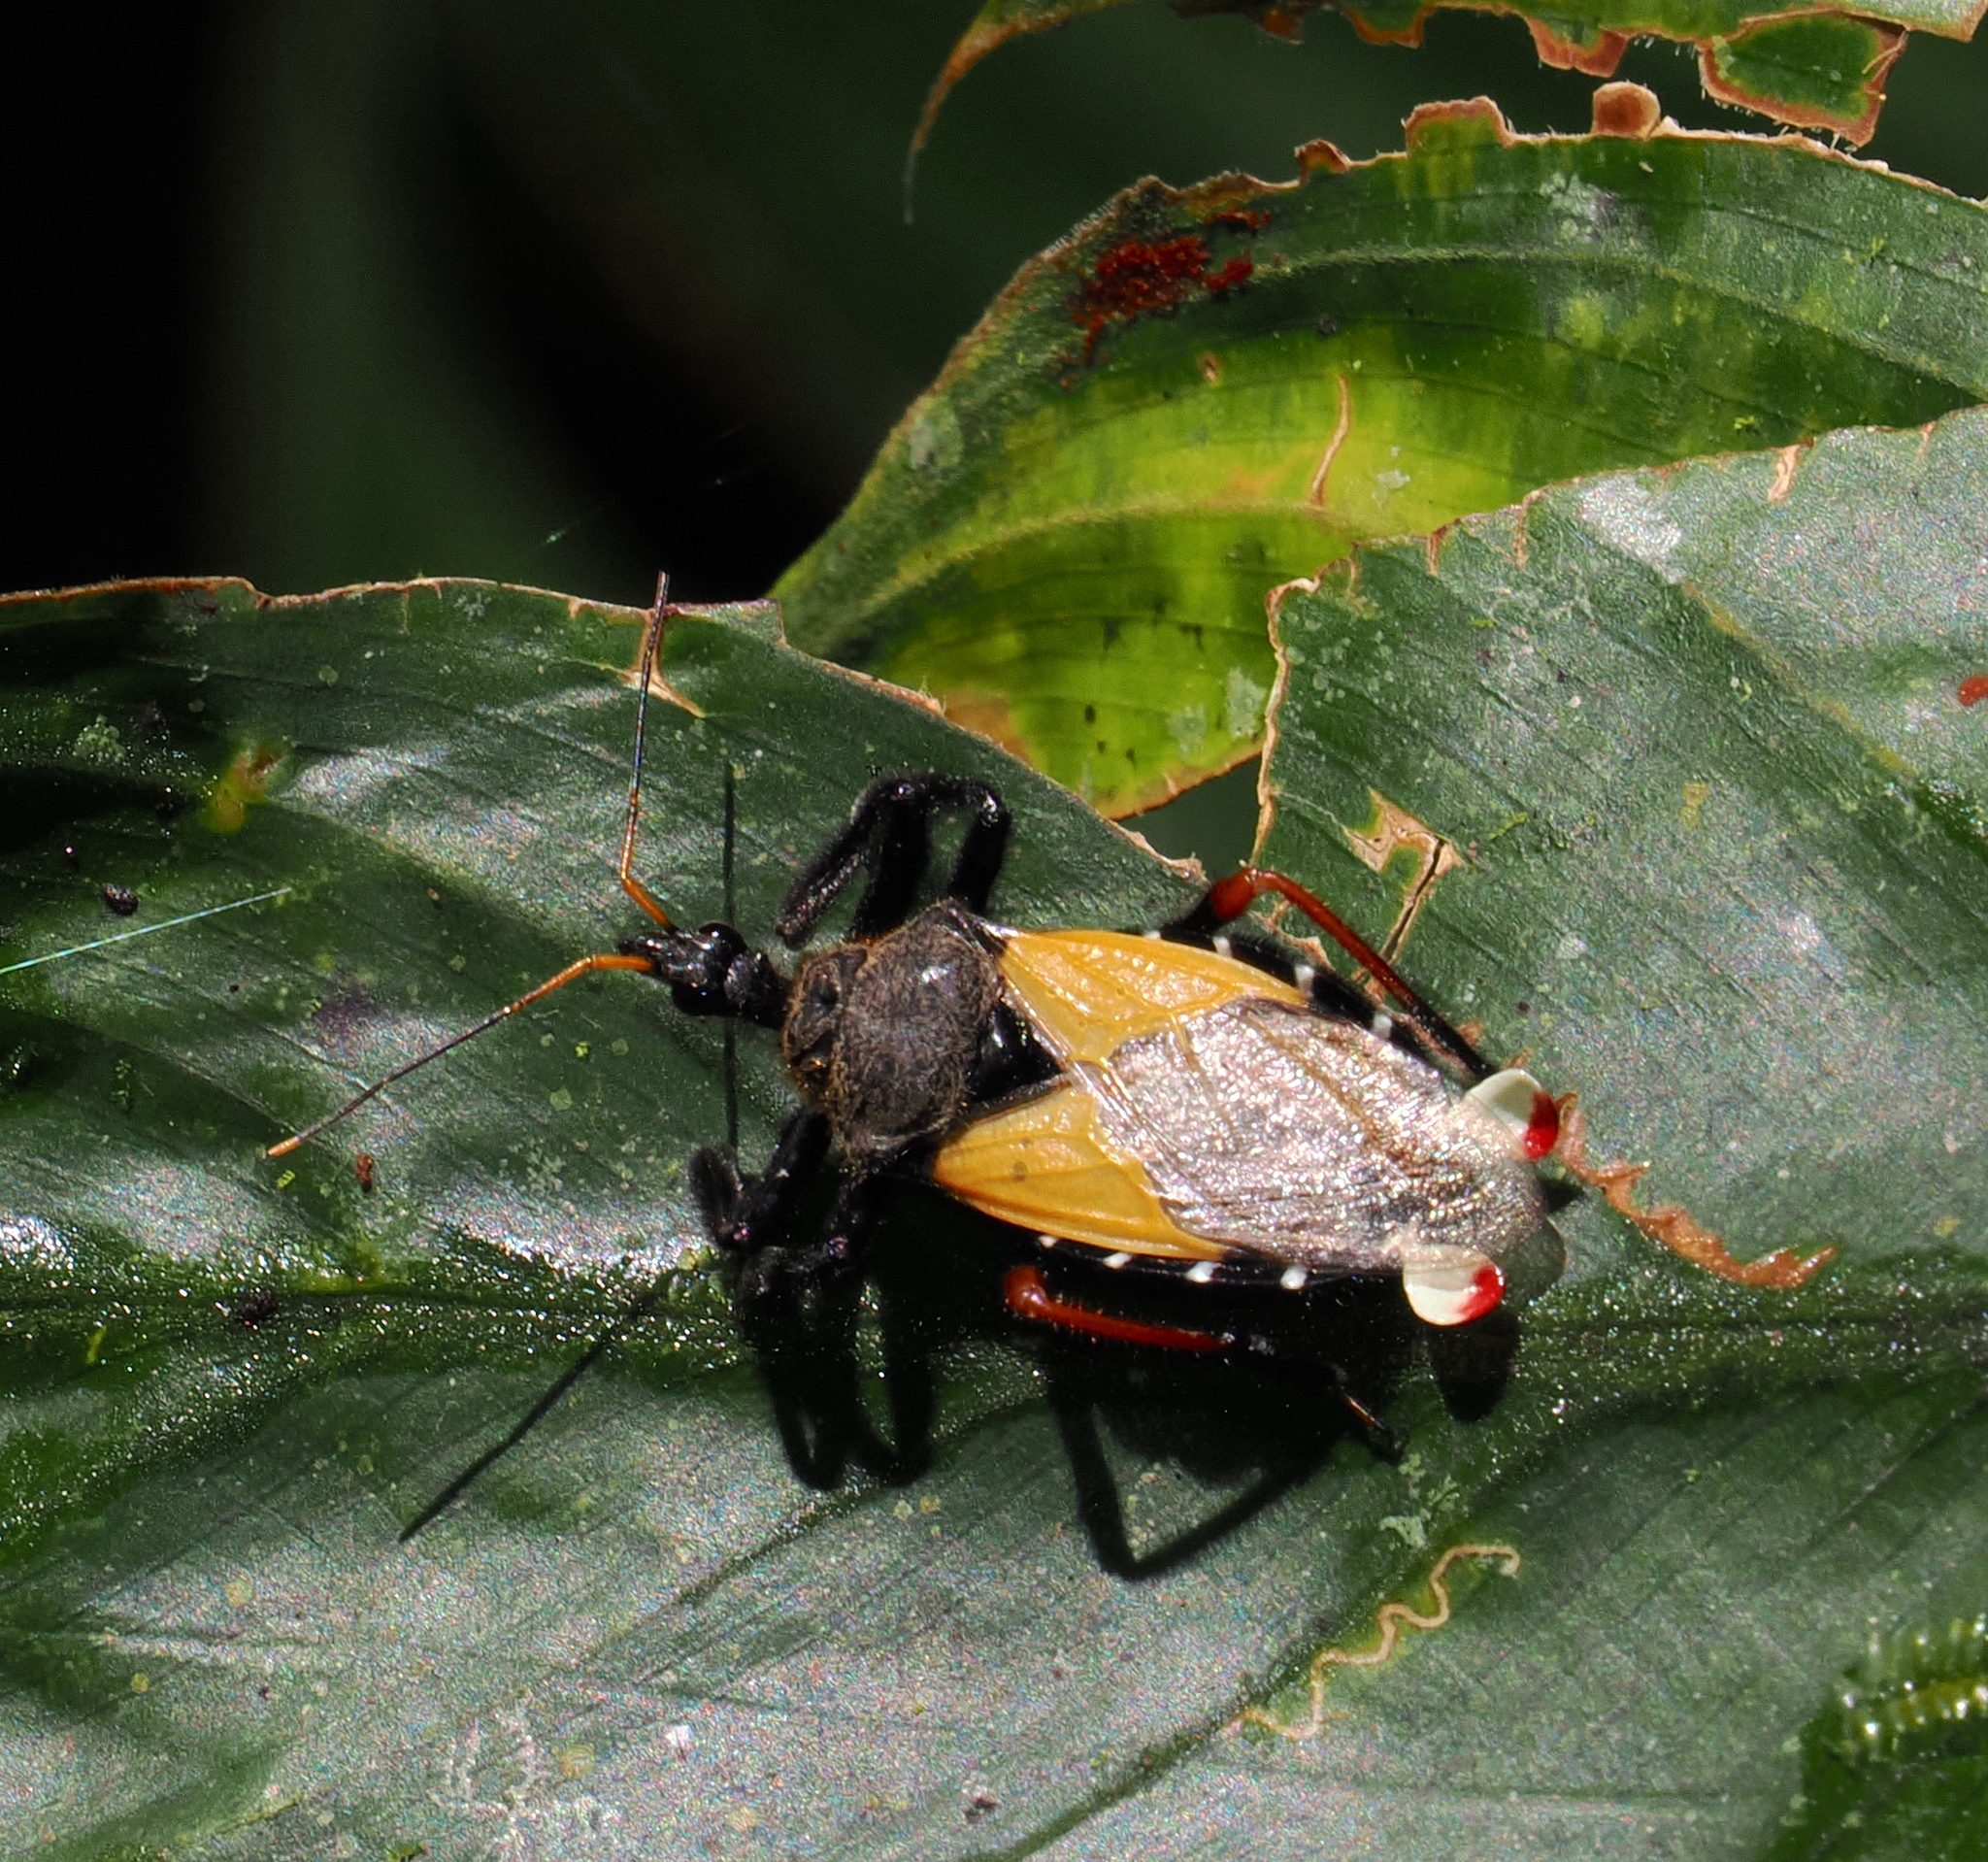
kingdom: Animalia
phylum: Arthropoda
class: Insecta
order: Hemiptera
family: Reduviidae
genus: Apiomerus
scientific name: Apiomerus ochropterus
